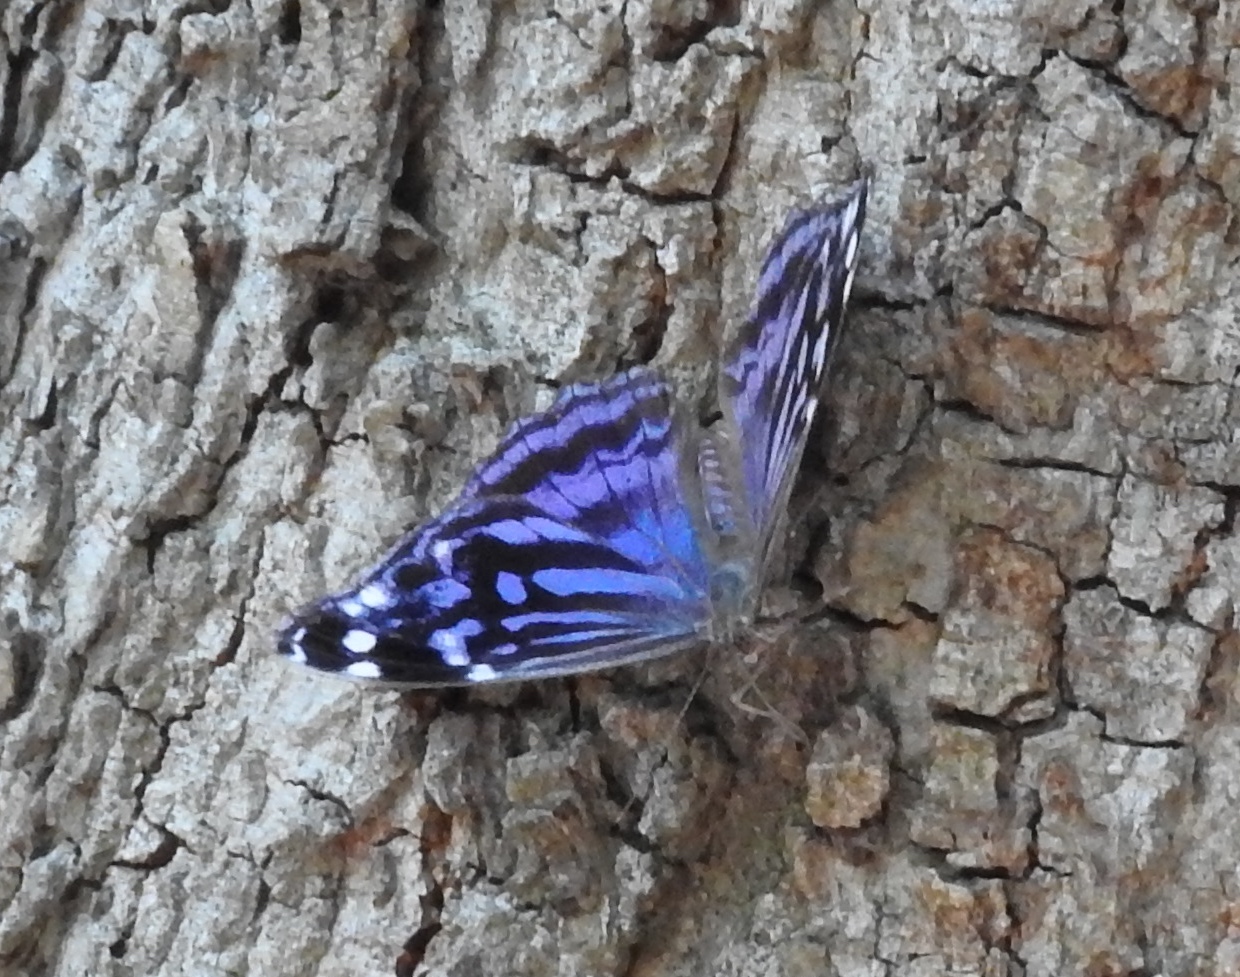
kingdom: Animalia
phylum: Arthropoda
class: Insecta
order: Lepidoptera
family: Nymphalidae
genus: Myscelia
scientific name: Myscelia ethusa
